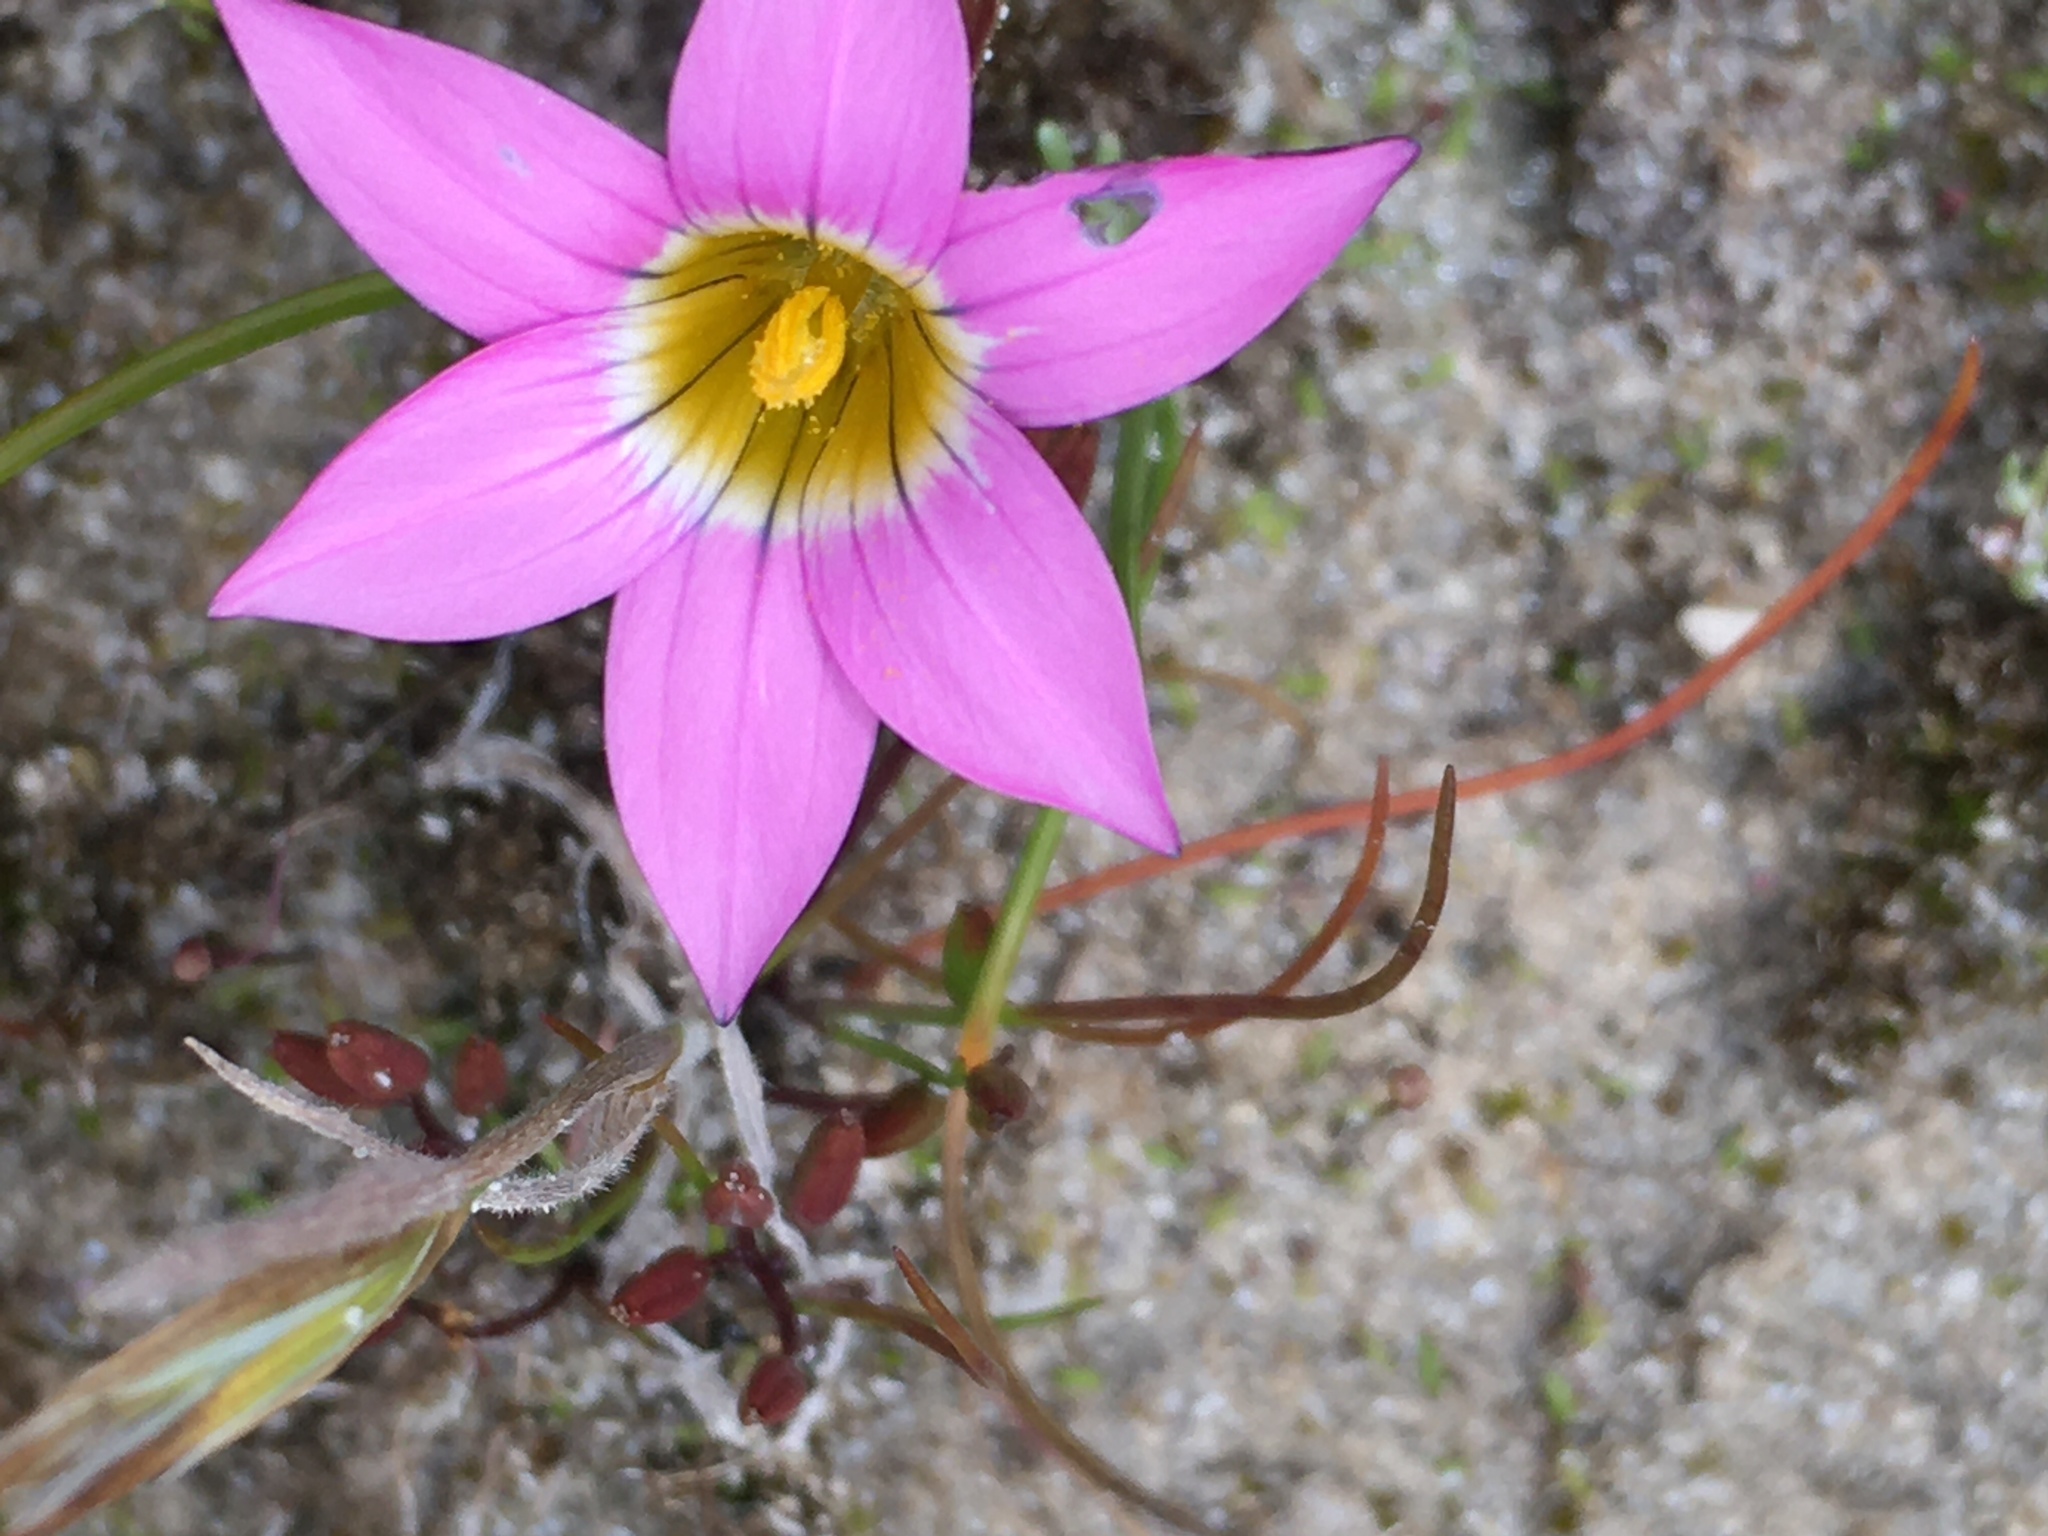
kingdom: Plantae
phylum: Tracheophyta
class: Liliopsida
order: Asparagales
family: Iridaceae
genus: Romulea
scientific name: Romulea rosea
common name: Oniongrass
